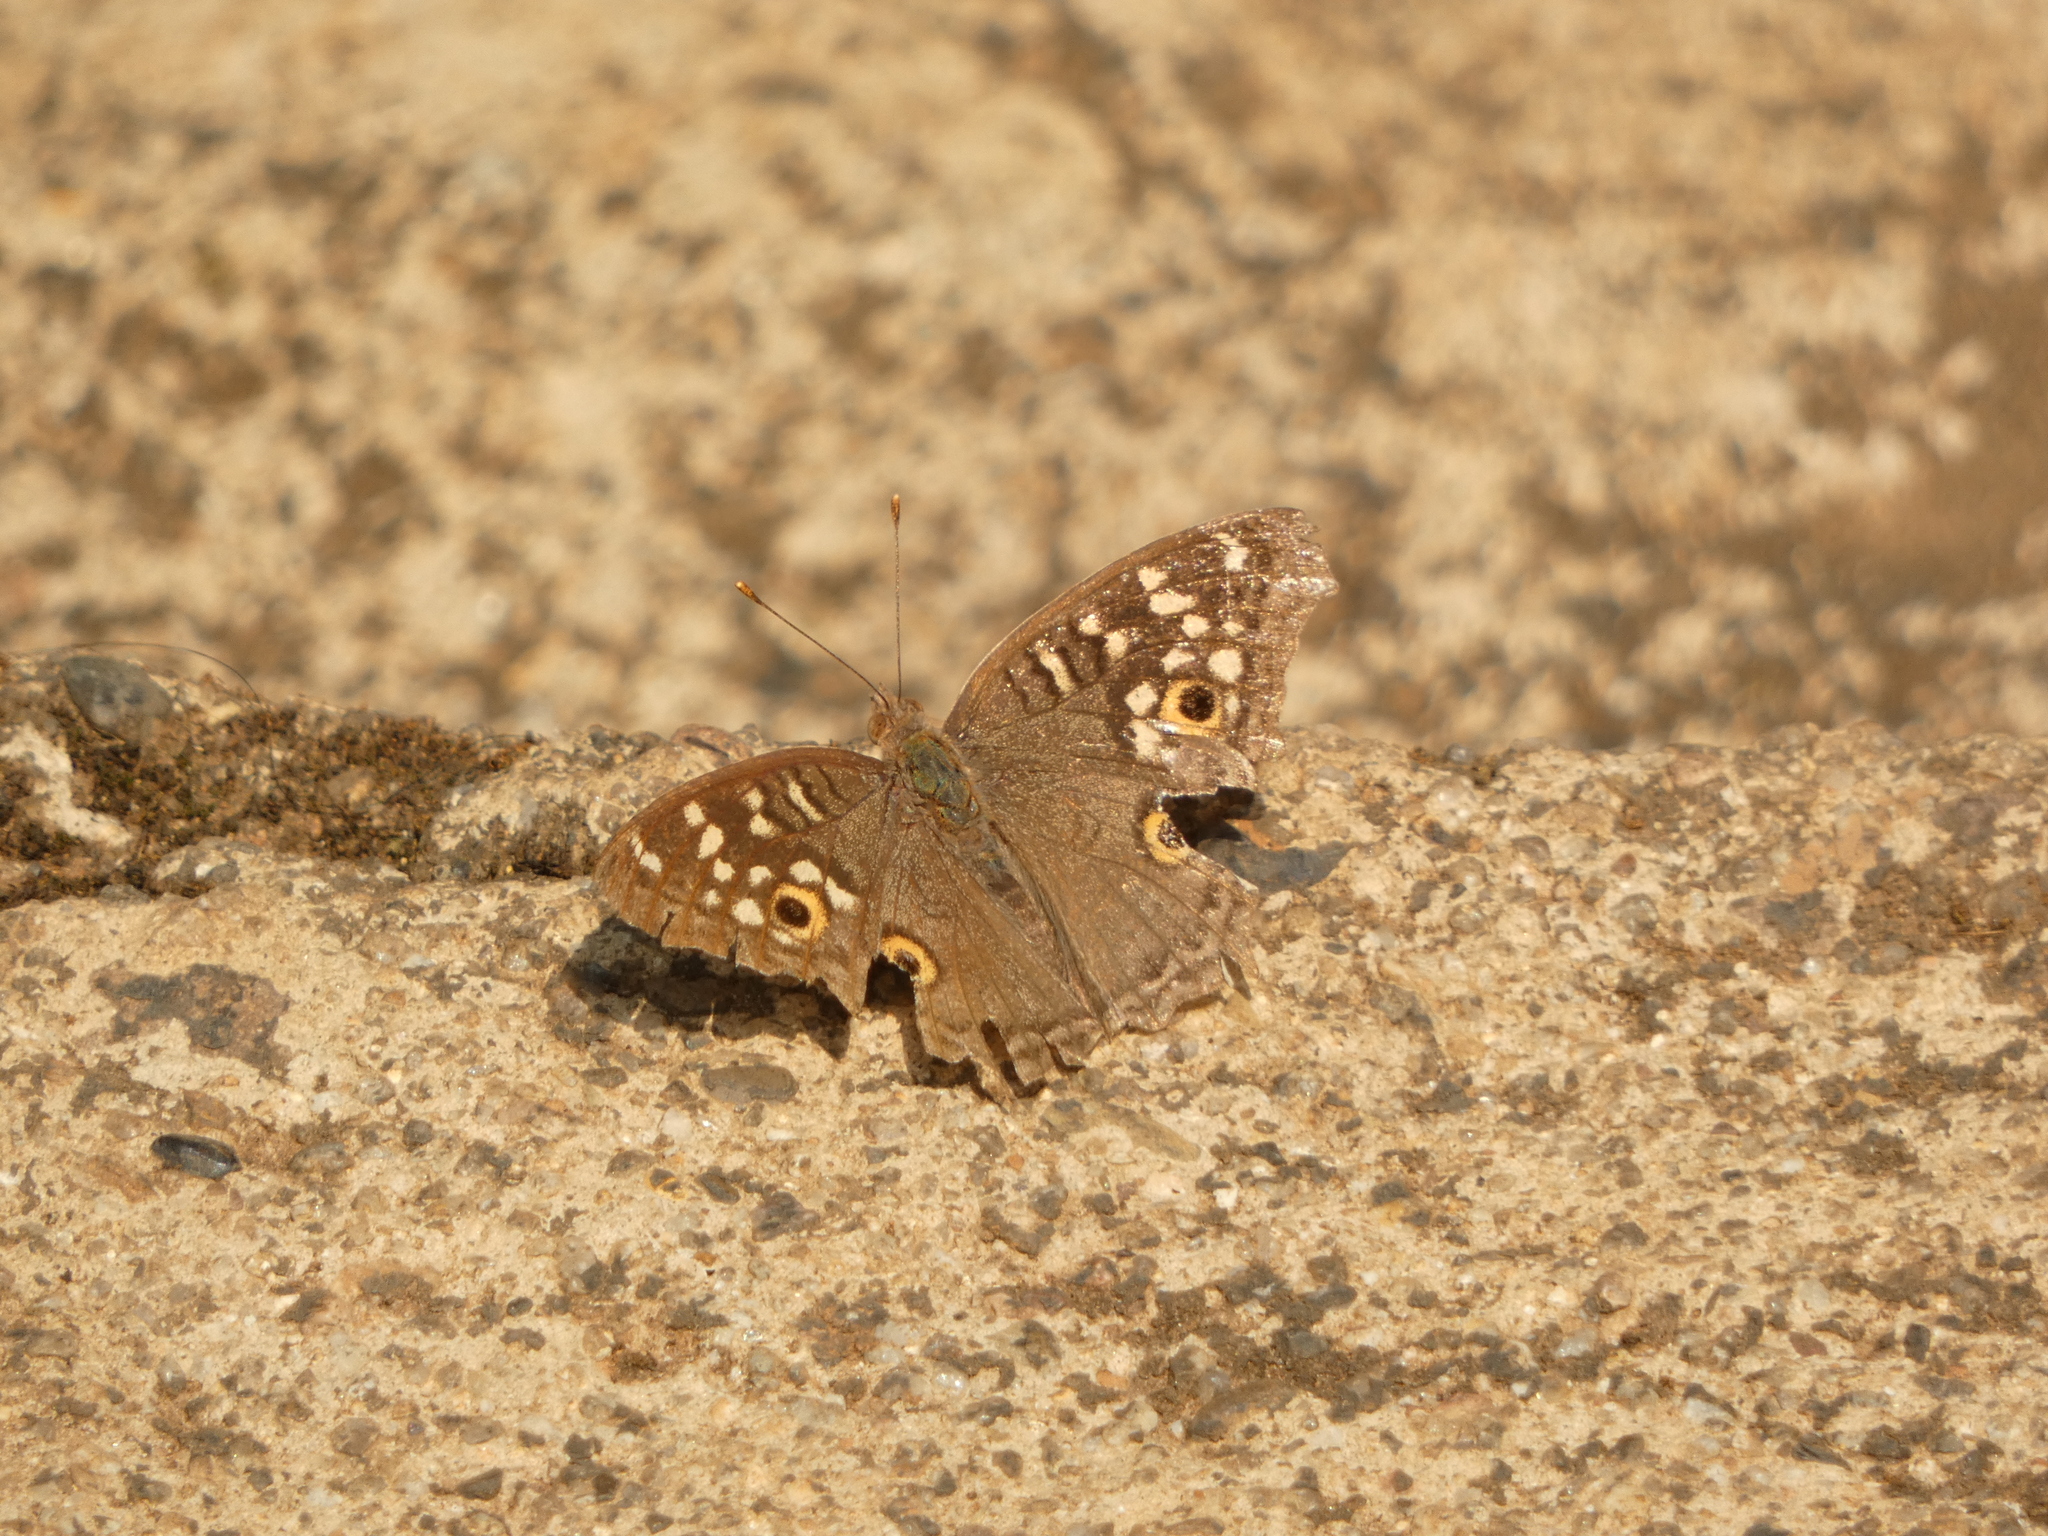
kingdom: Animalia
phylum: Arthropoda
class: Insecta
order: Lepidoptera
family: Nymphalidae
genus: Junonia
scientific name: Junonia lemonias
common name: Lemon pansy
